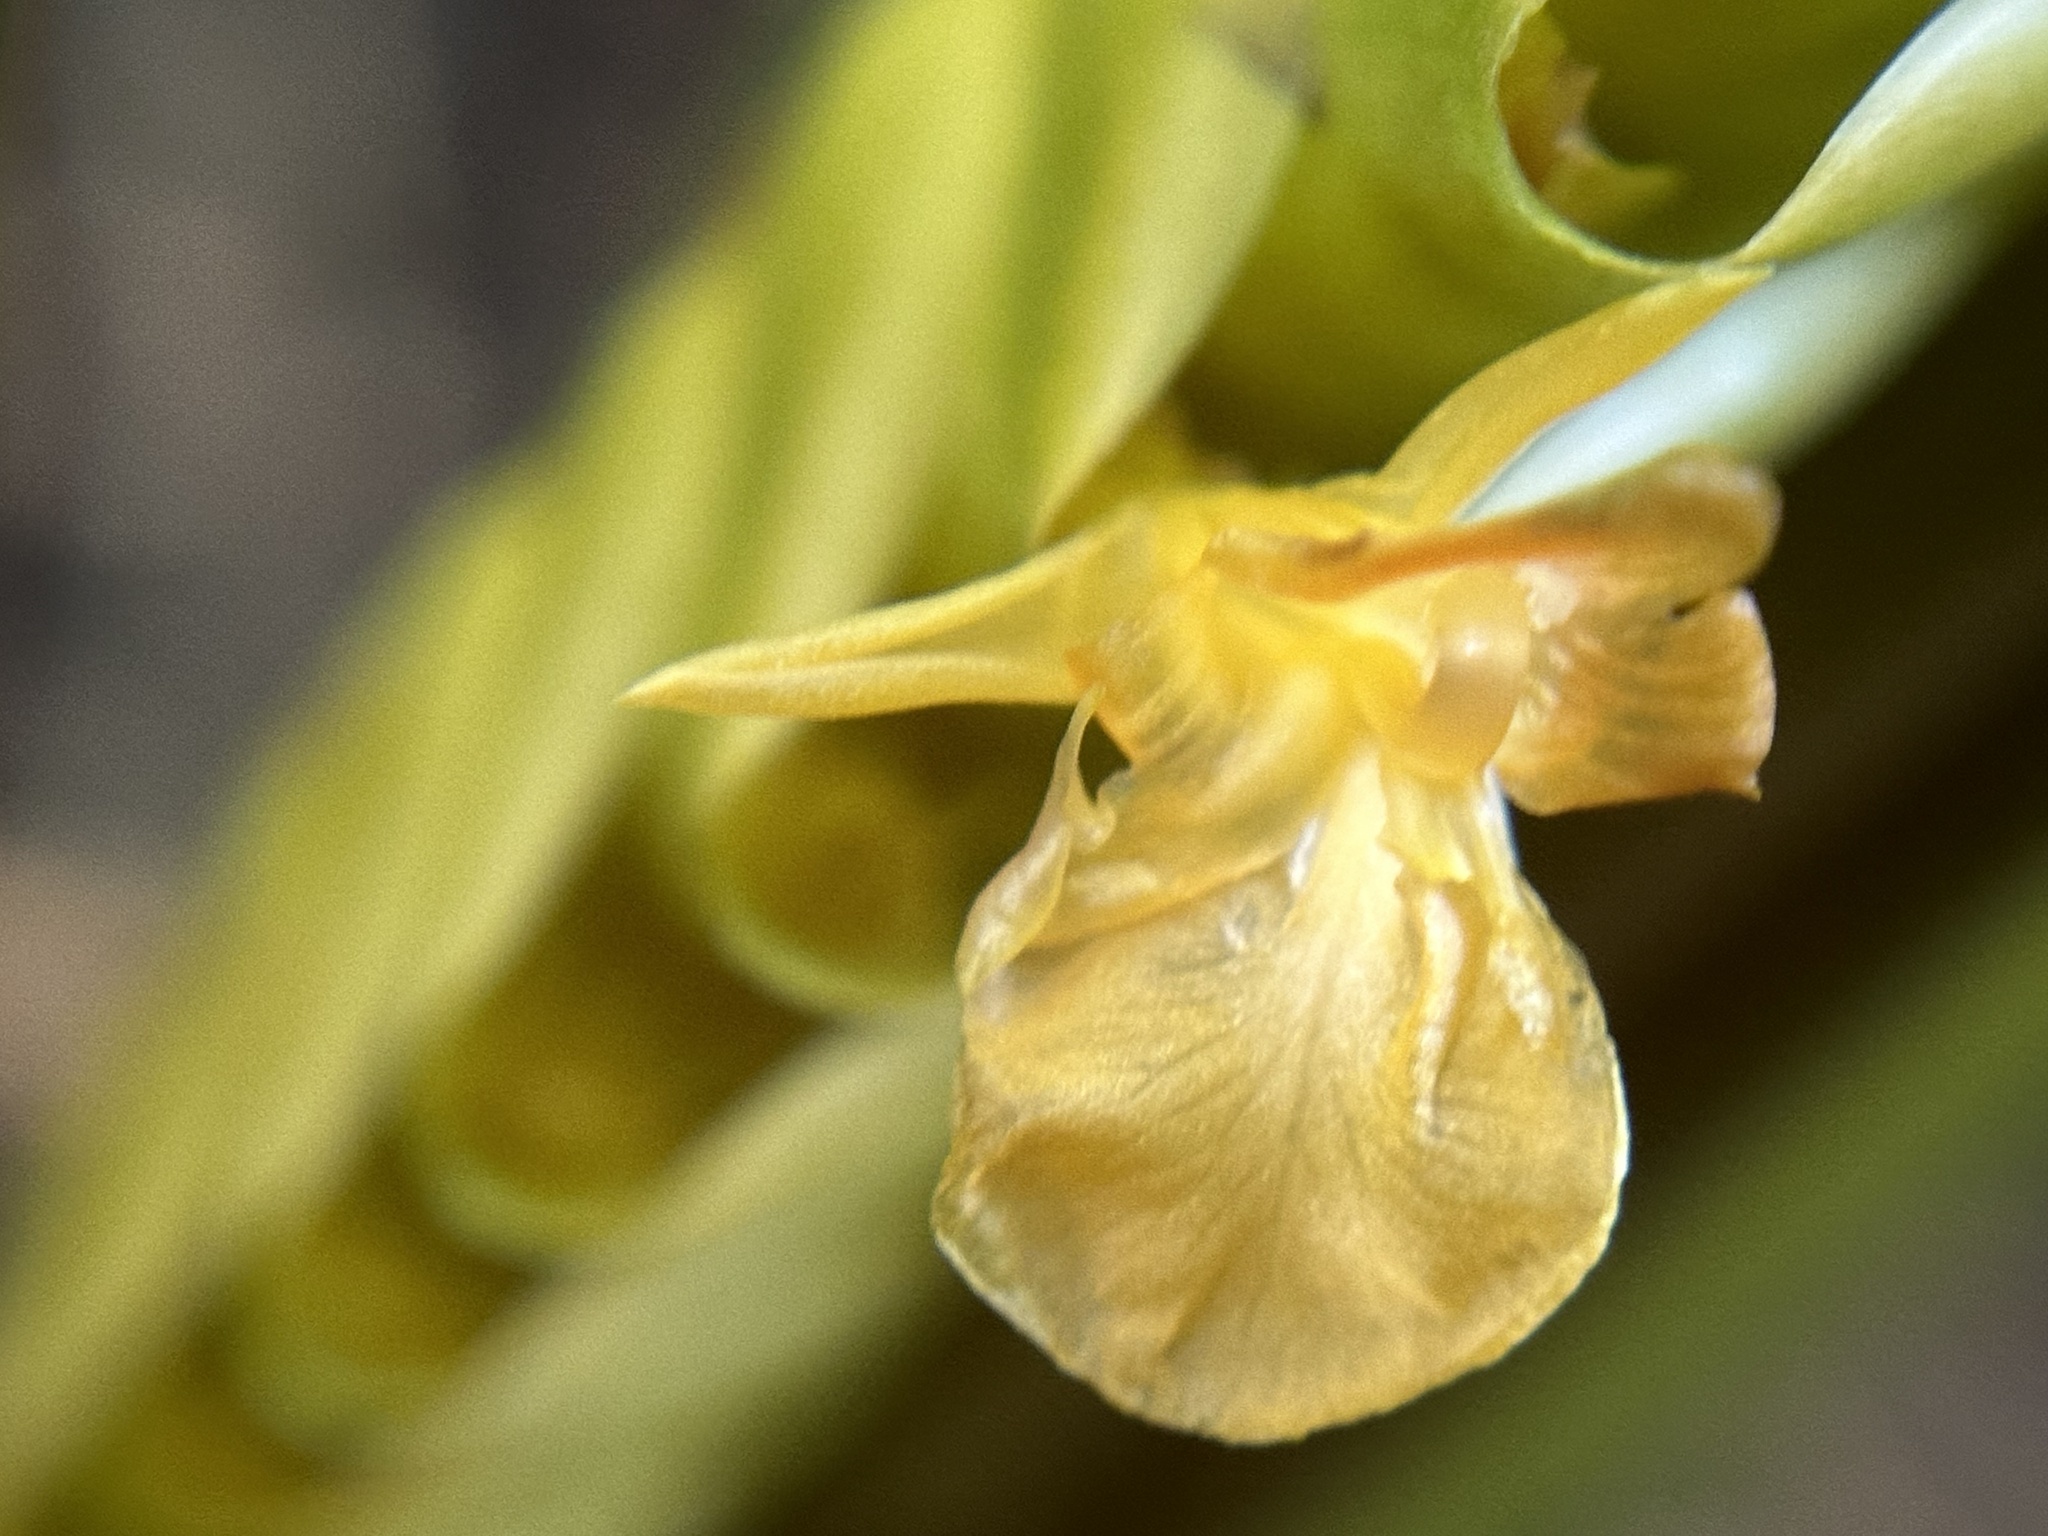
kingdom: Plantae
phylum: Tracheophyta
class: Liliopsida
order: Zingiberales
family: Marantaceae
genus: Calathea
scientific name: Calathea crotalifera
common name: Rattlesnake plant
